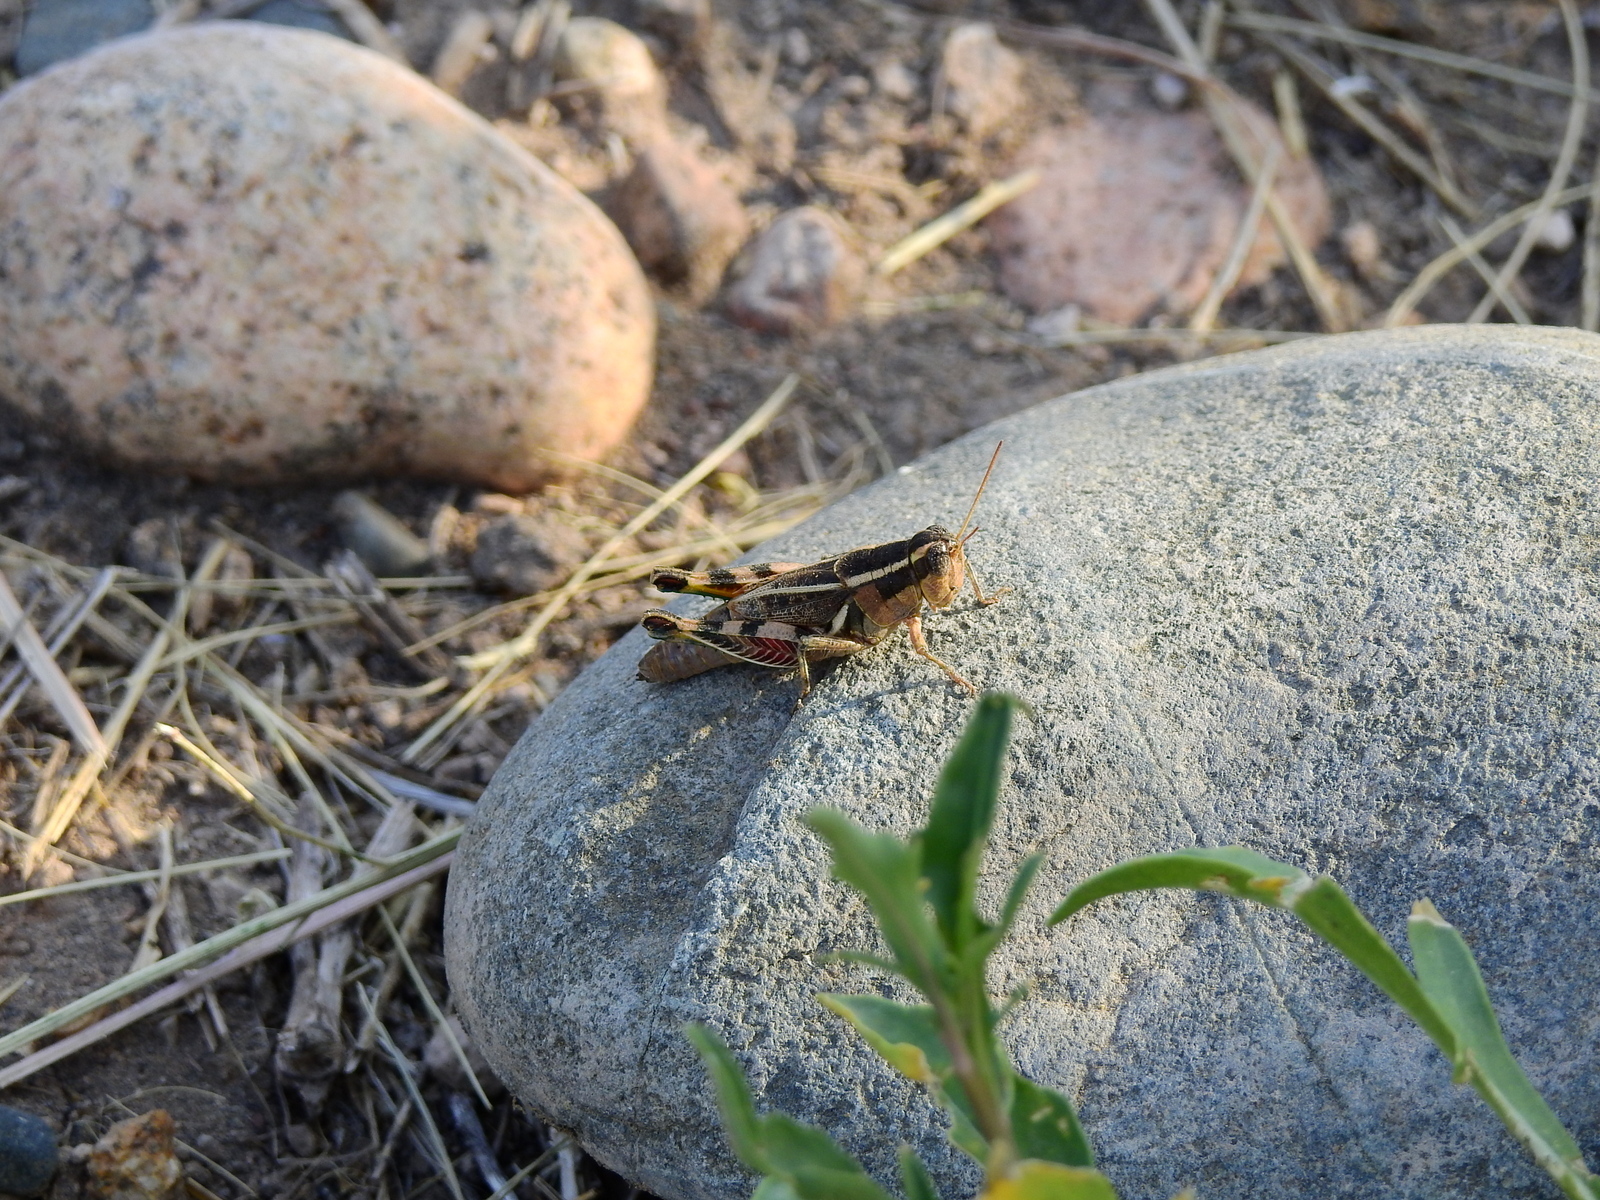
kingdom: Animalia
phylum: Arthropoda
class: Insecta
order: Orthoptera
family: Acrididae
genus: Dichroplus
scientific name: Dichroplus vittatus
